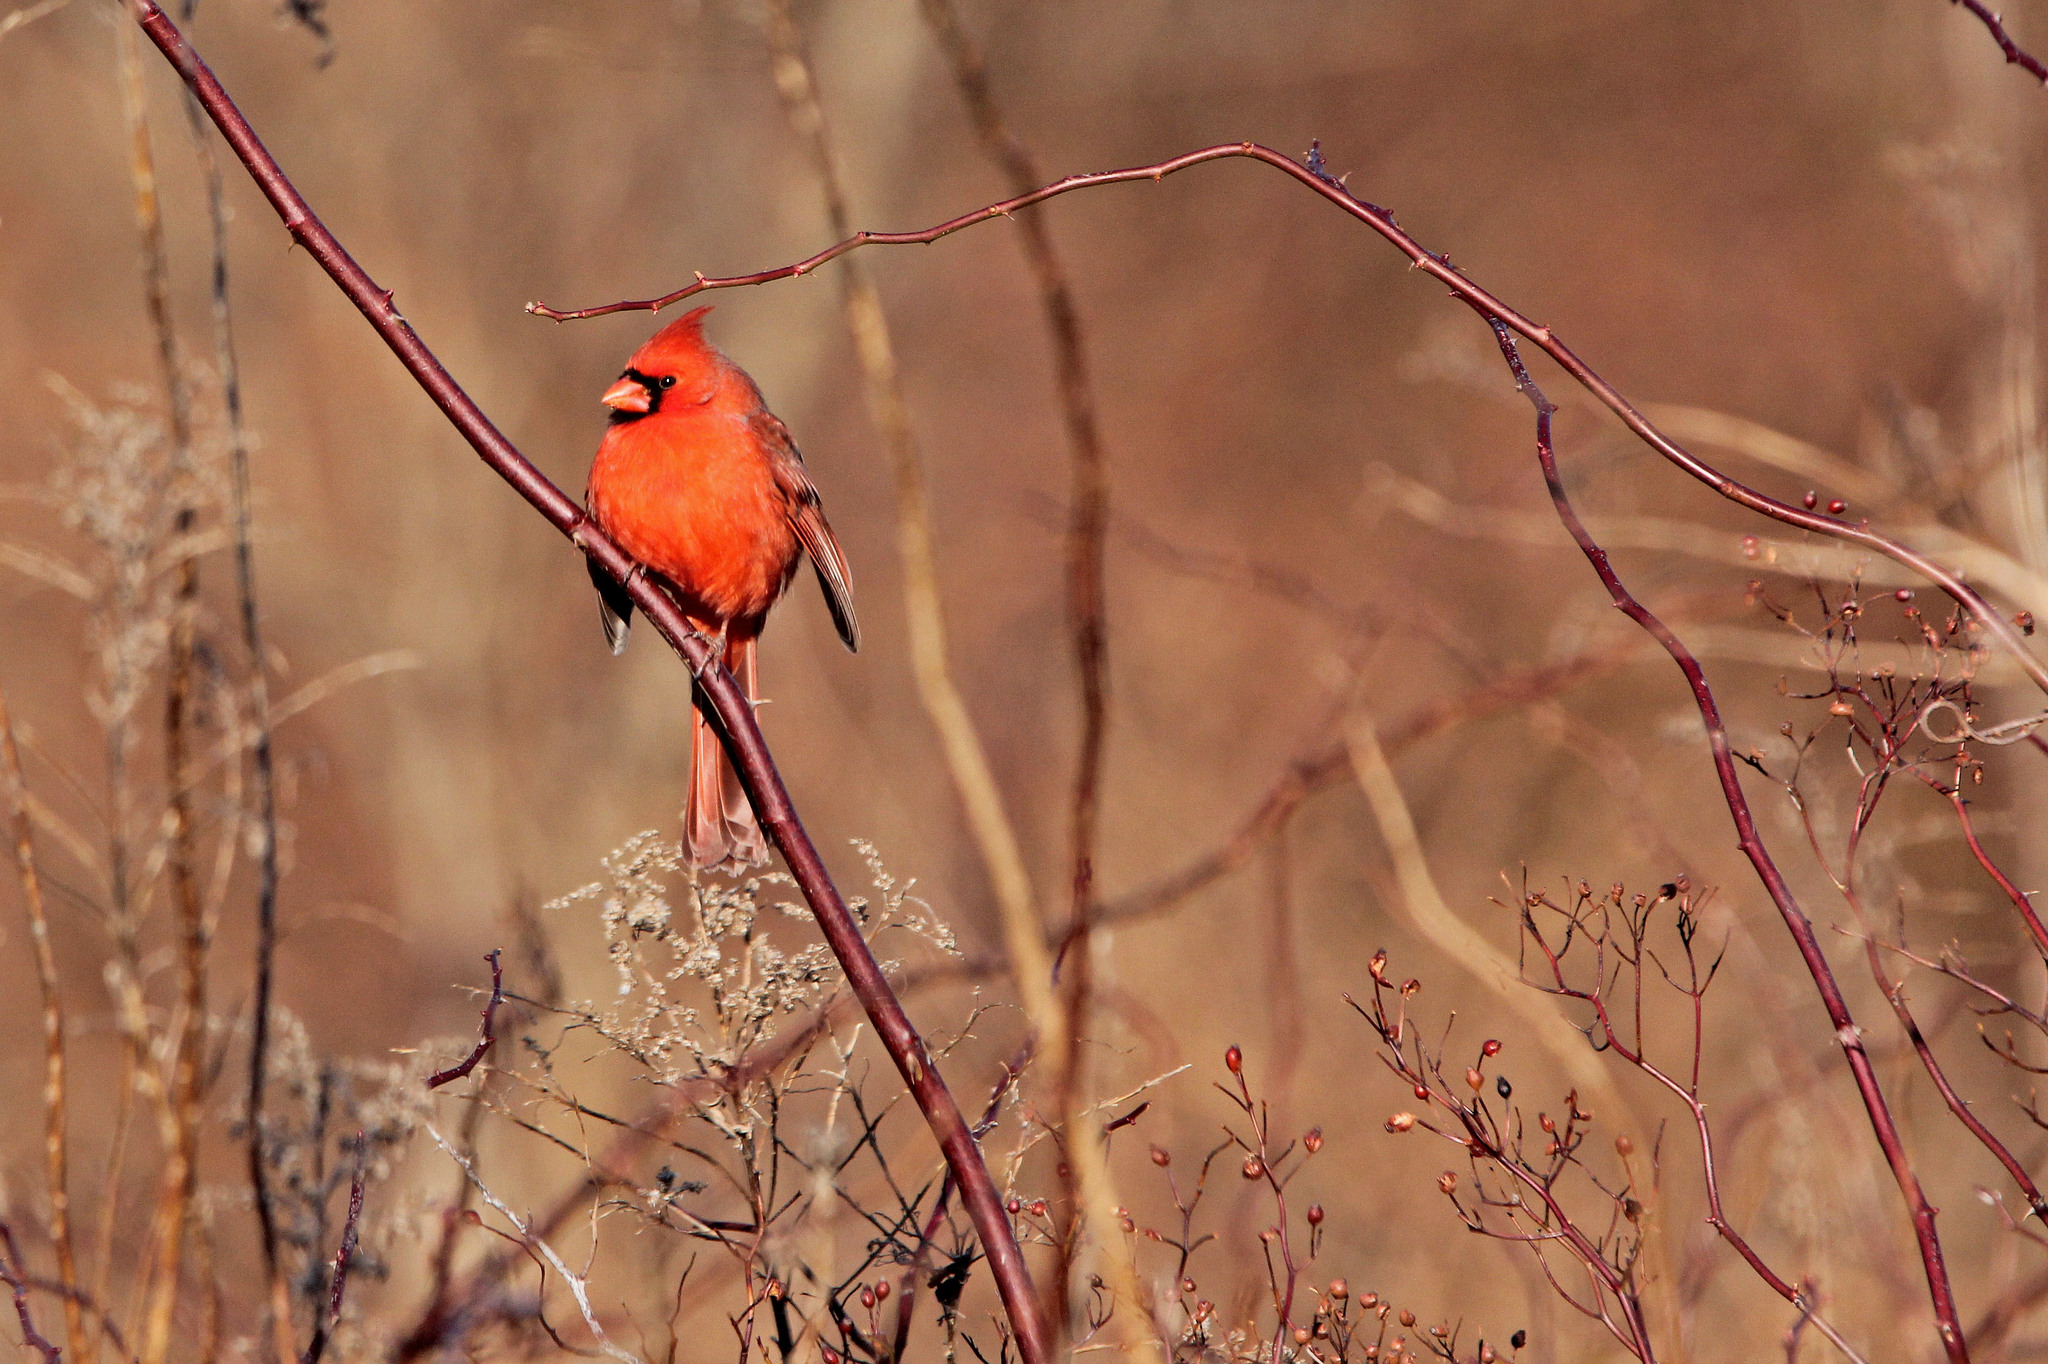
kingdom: Animalia
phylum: Chordata
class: Aves
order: Passeriformes
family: Cardinalidae
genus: Cardinalis
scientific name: Cardinalis cardinalis
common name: Northern cardinal
